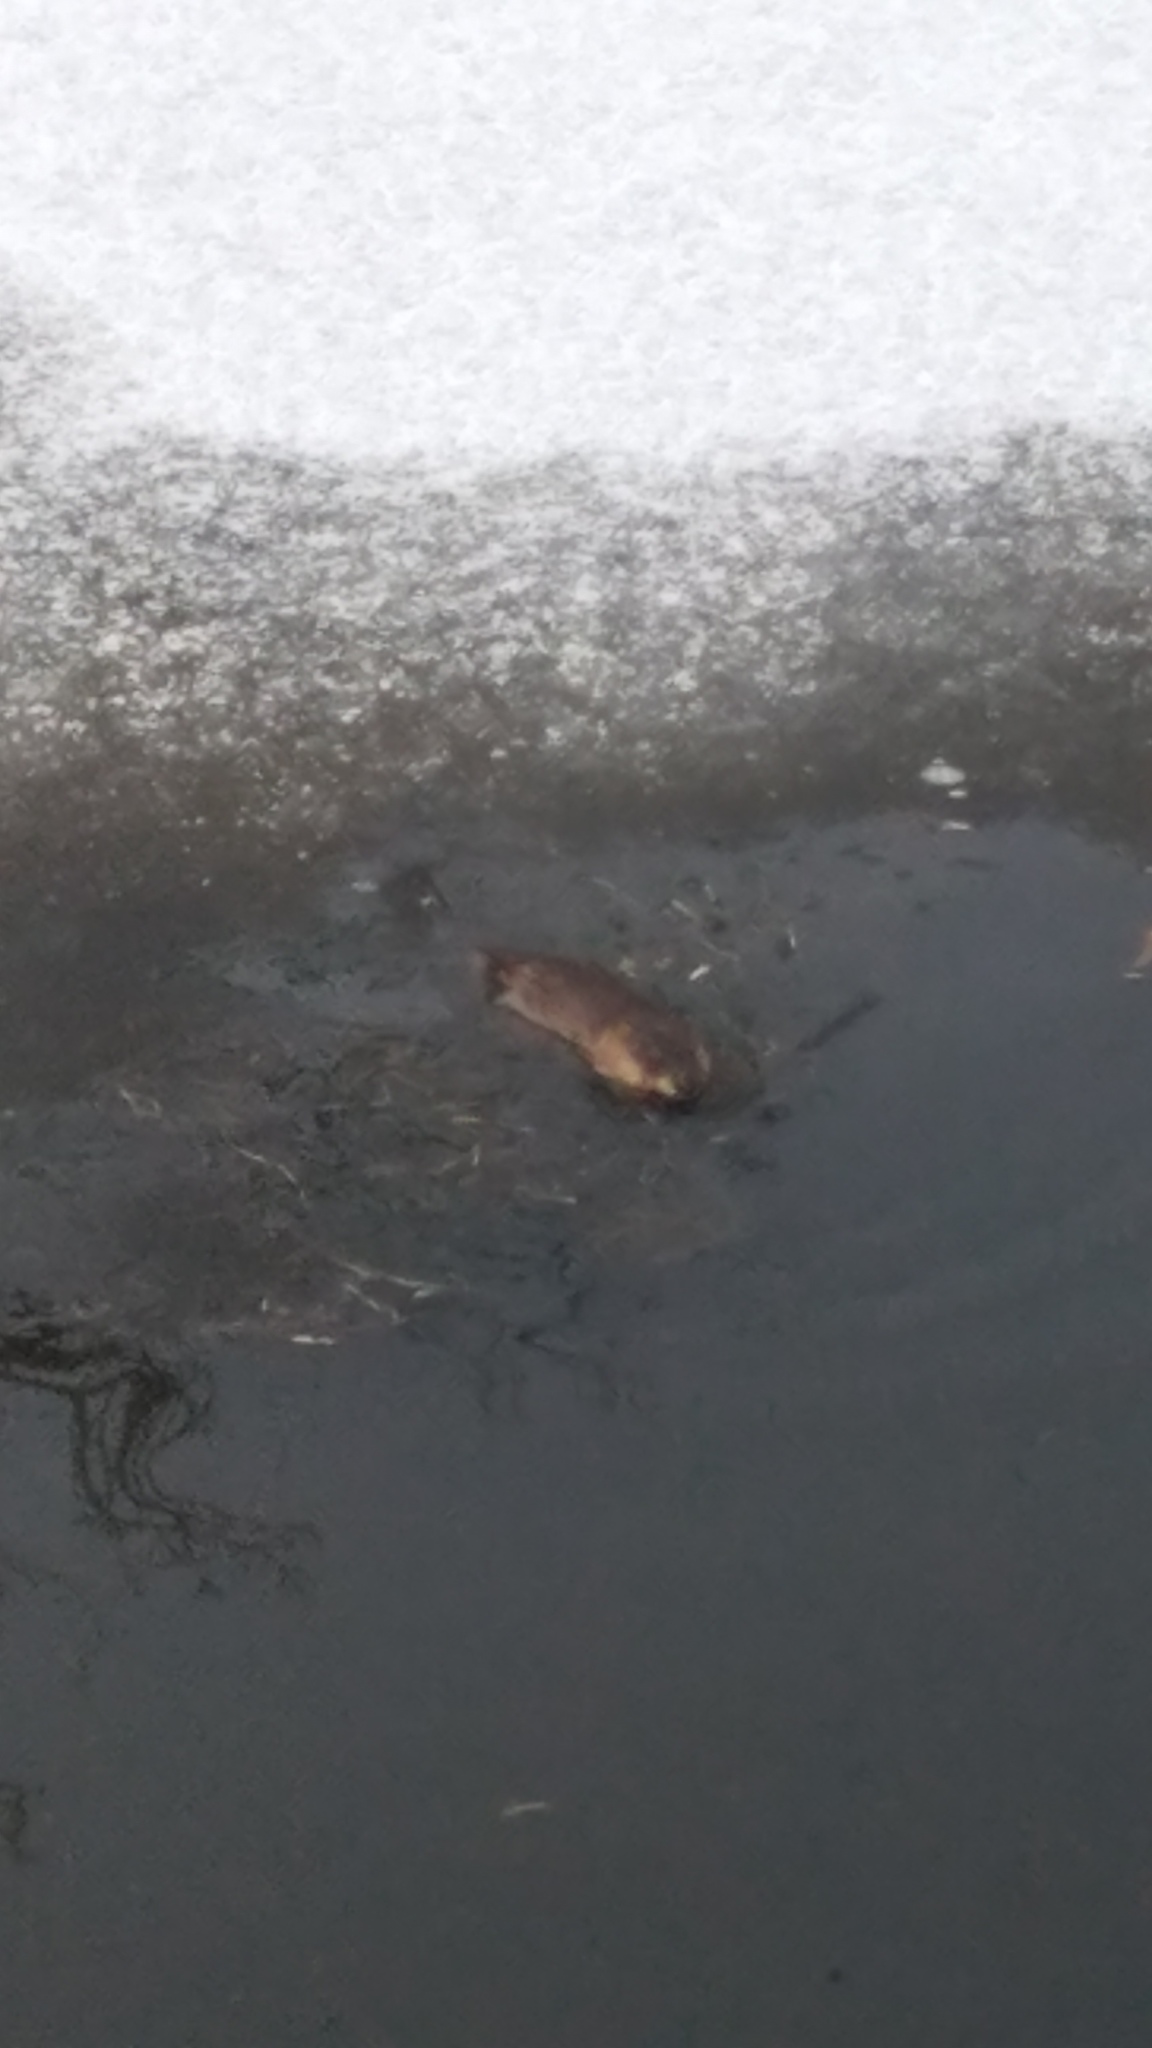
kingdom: Animalia
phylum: Chordata
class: Mammalia
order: Rodentia
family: Cricetidae
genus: Ondatra
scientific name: Ondatra zibethicus
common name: Muskrat
